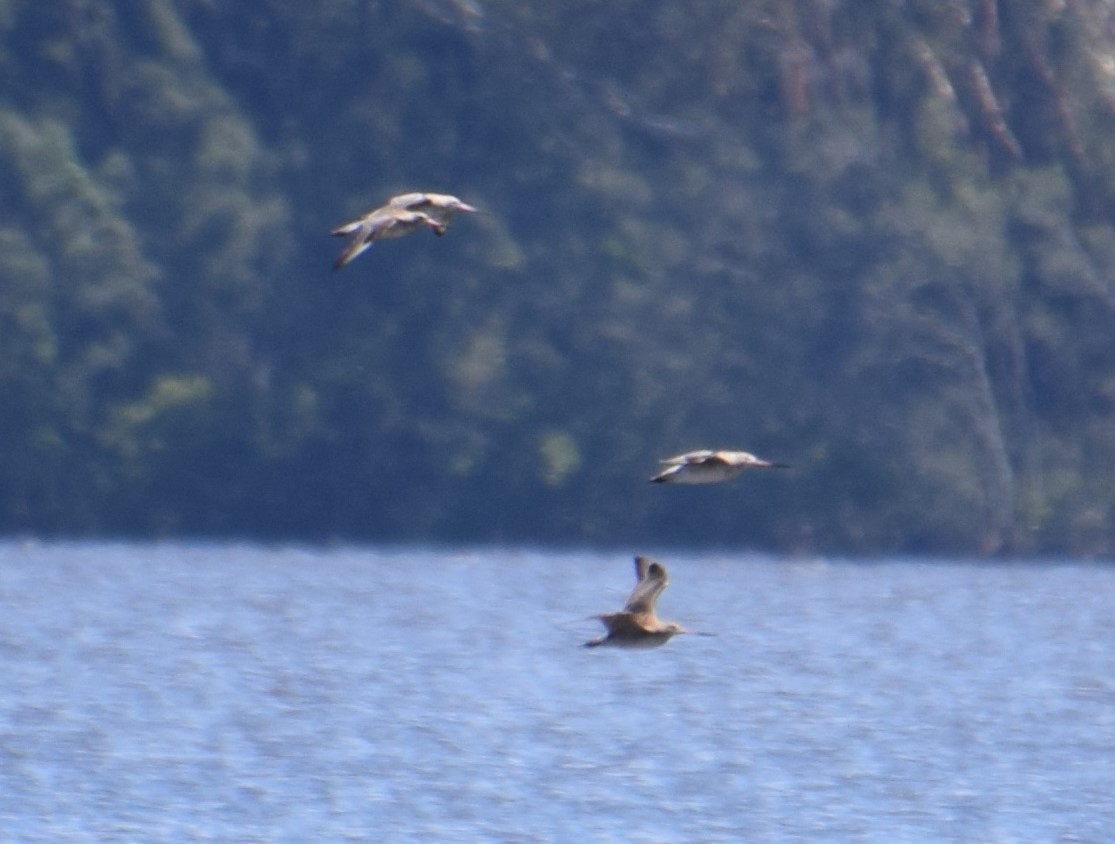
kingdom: Animalia
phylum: Chordata
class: Aves
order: Charadriiformes
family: Scolopacidae
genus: Limosa
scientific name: Limosa lapponica
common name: Bar-tailed godwit
